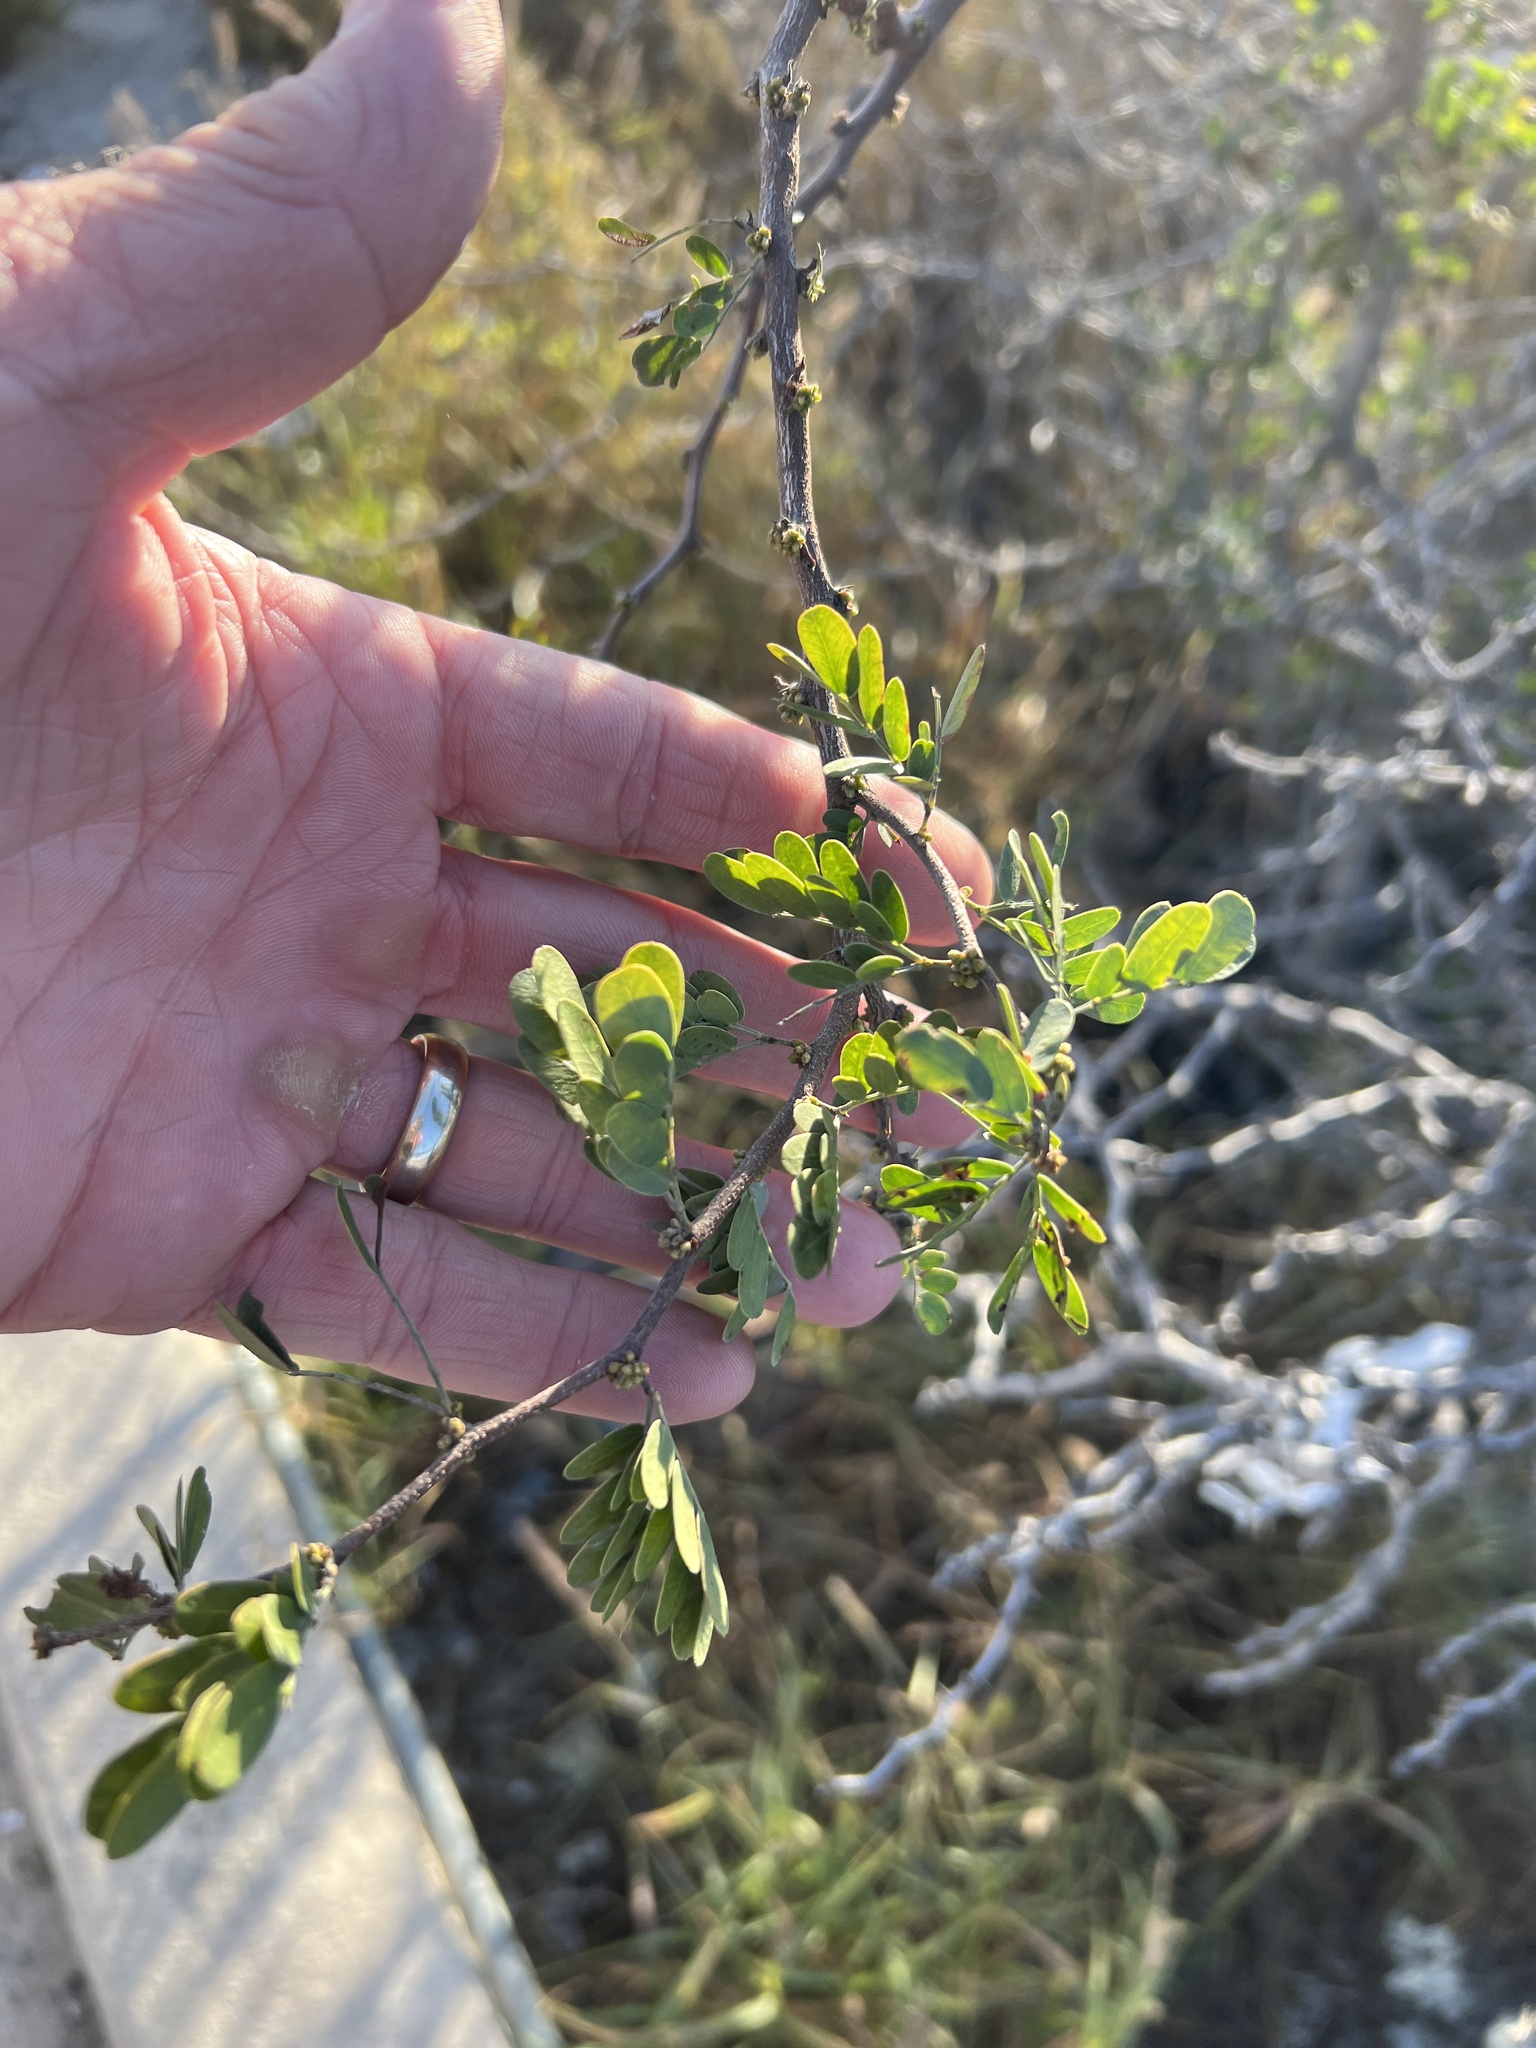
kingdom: Plantae
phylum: Tracheophyta
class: Magnoliopsida
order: Fabales
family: Fabaceae
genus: Vachellia
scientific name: Vachellia rigidula
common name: Blackbrush
